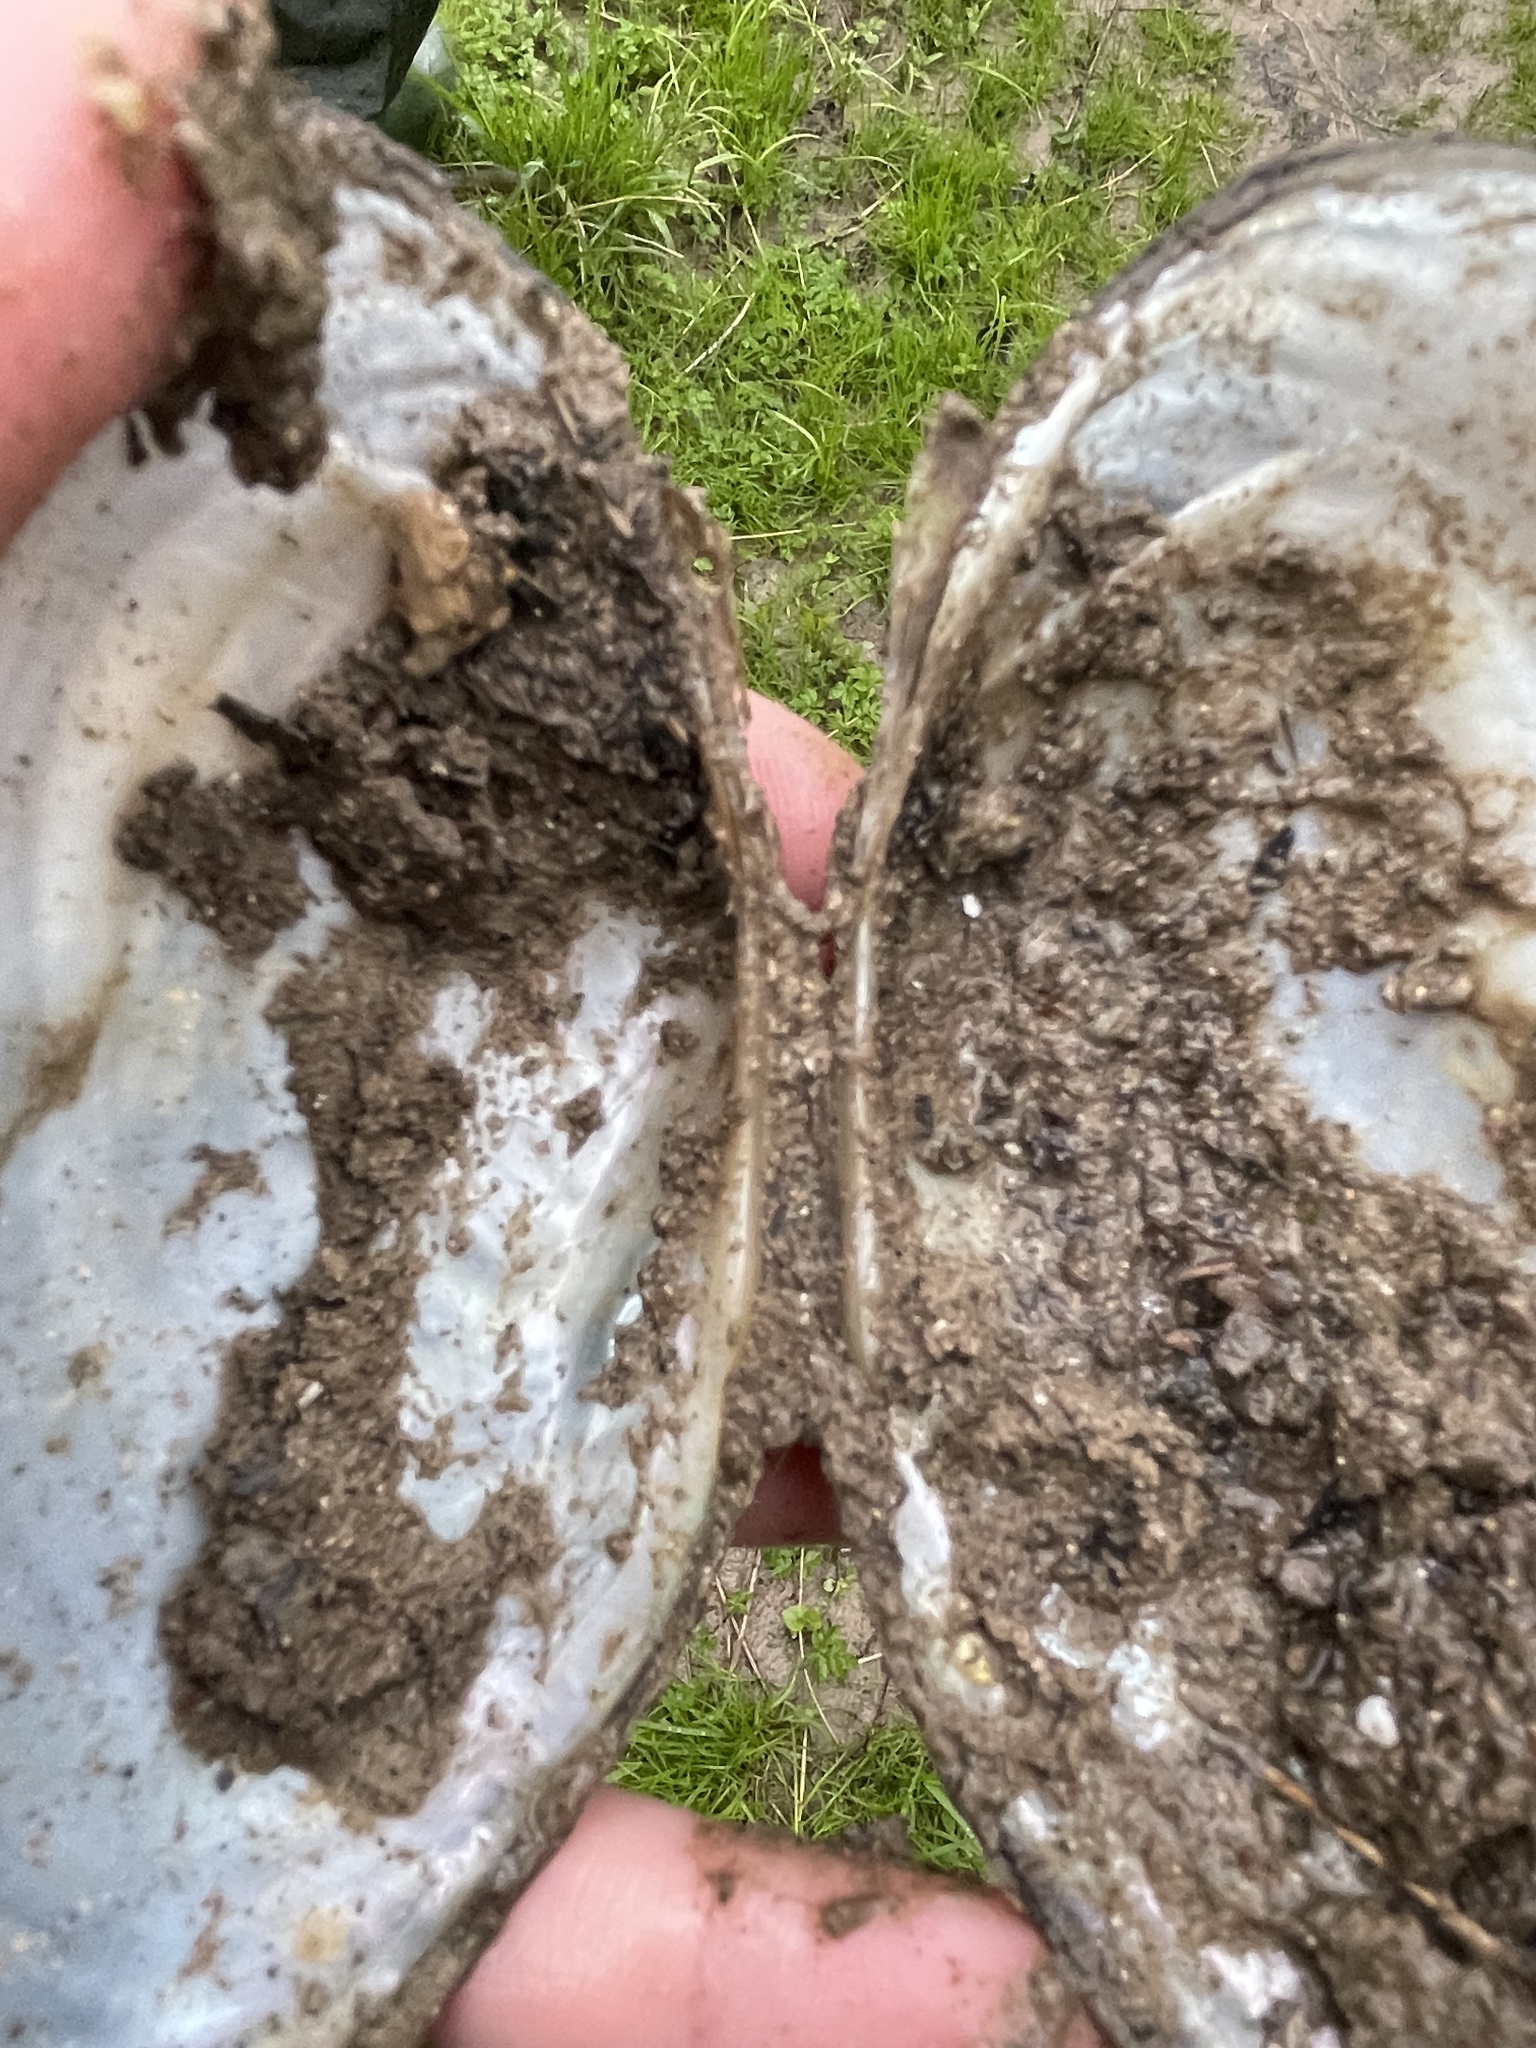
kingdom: Animalia
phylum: Mollusca
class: Bivalvia
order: Unionida
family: Unionidae
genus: Pyganodon
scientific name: Pyganodon grandis
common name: Giant floater
